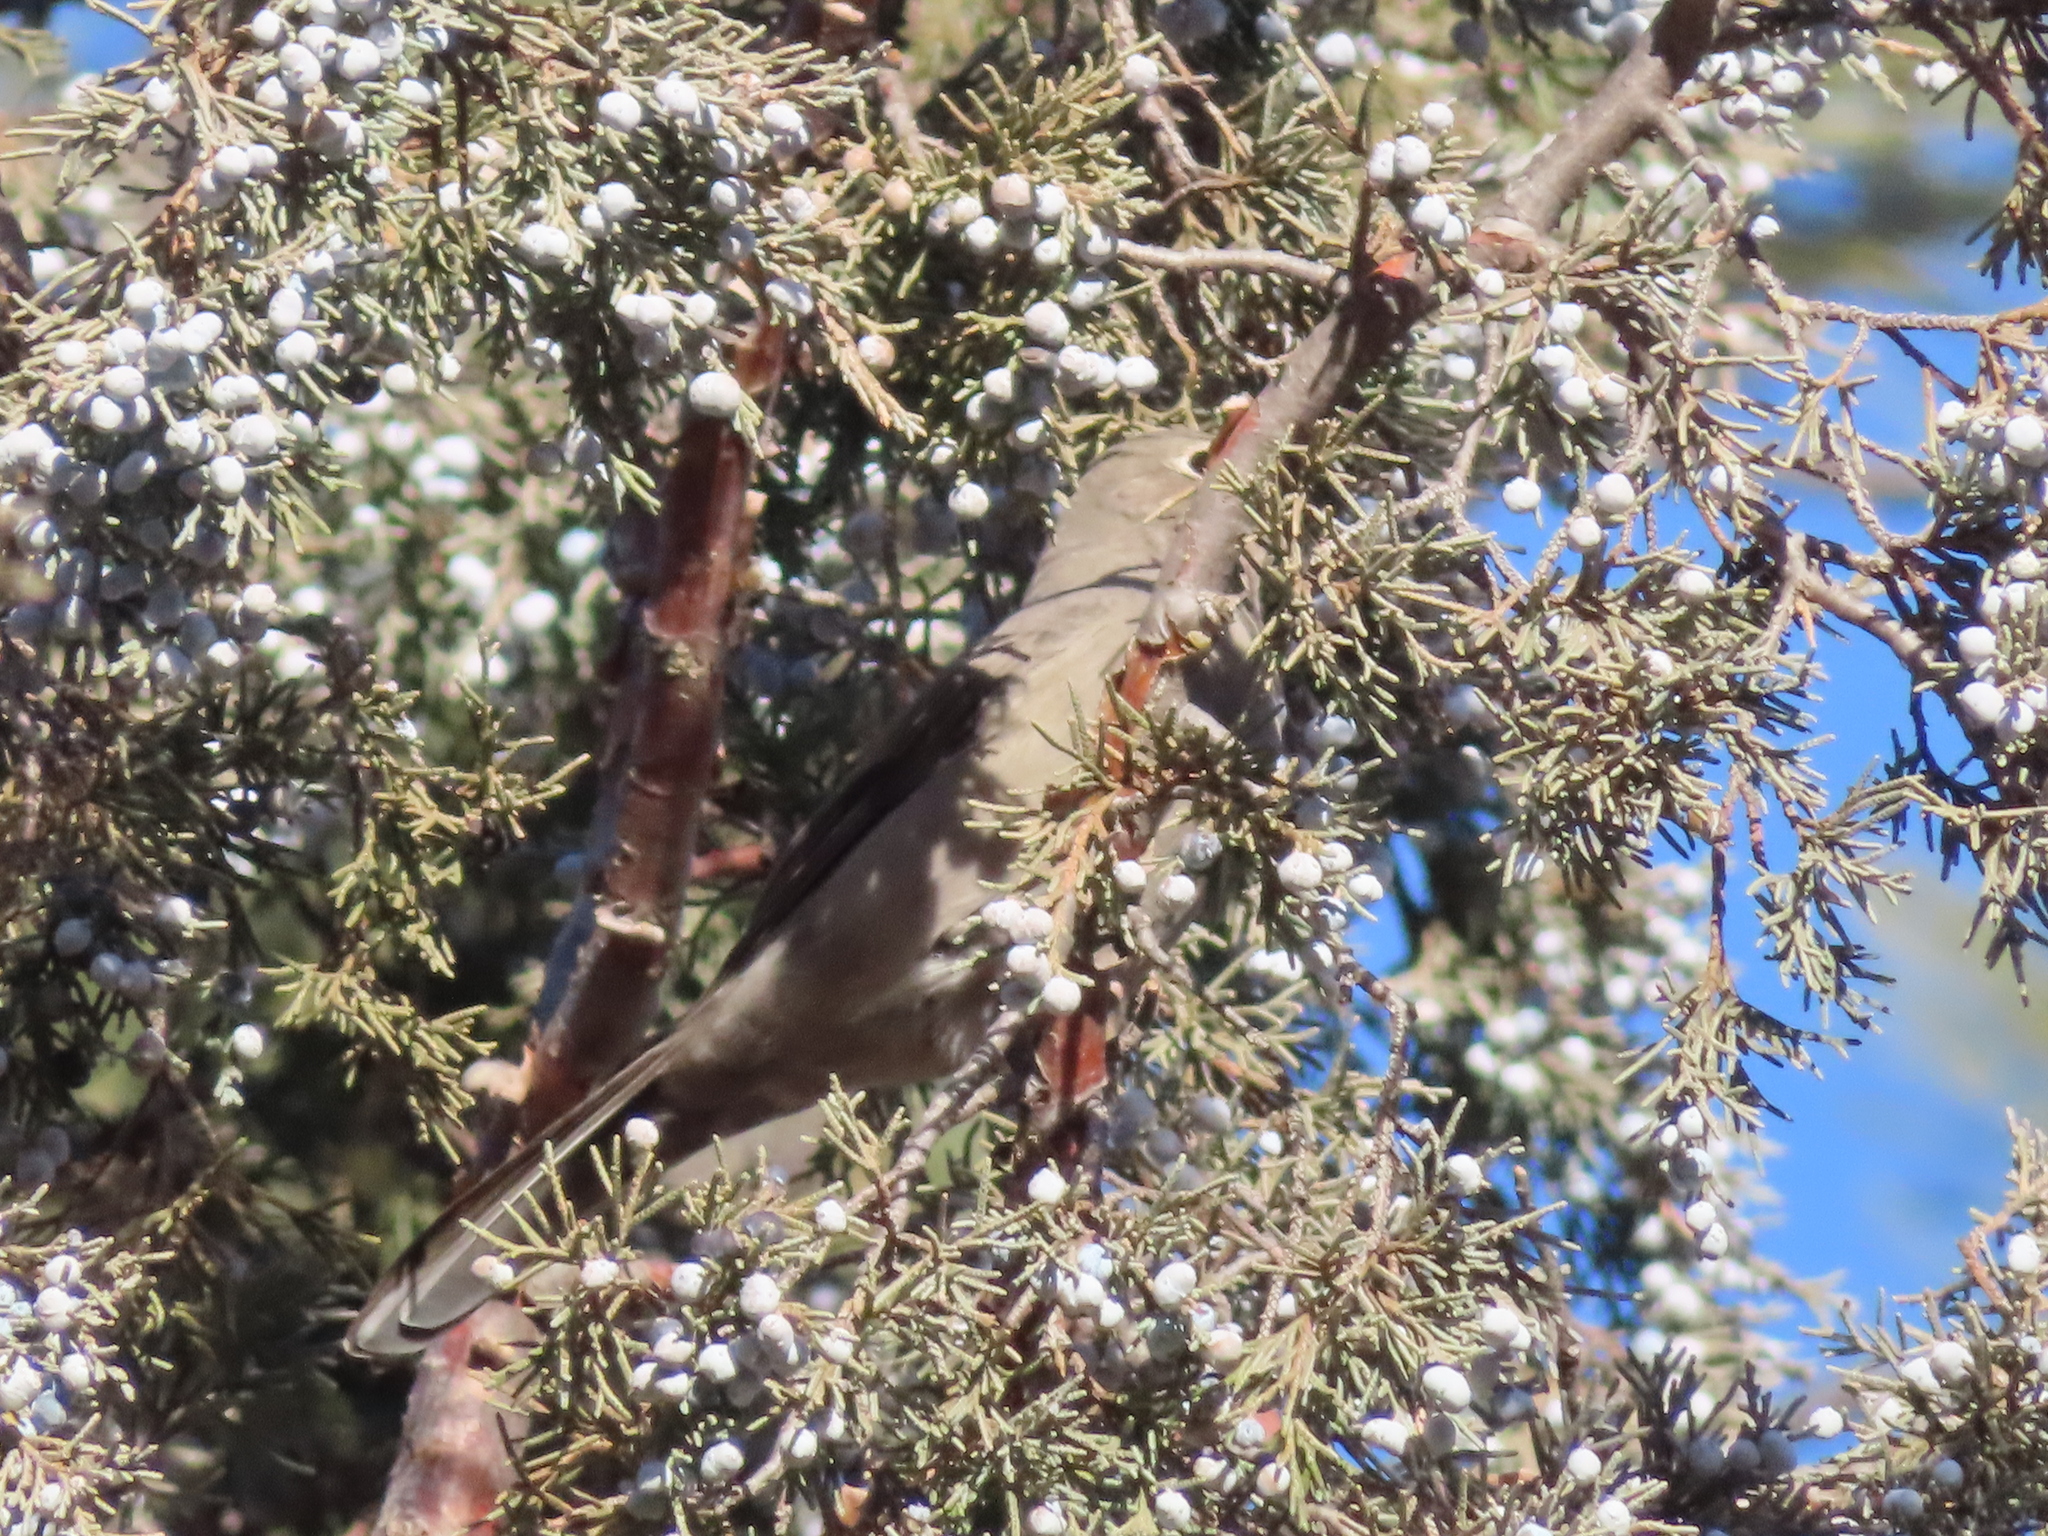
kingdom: Animalia
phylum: Chordata
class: Aves
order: Passeriformes
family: Turdidae
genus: Myadestes
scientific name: Myadestes townsendi
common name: Townsend's solitaire
